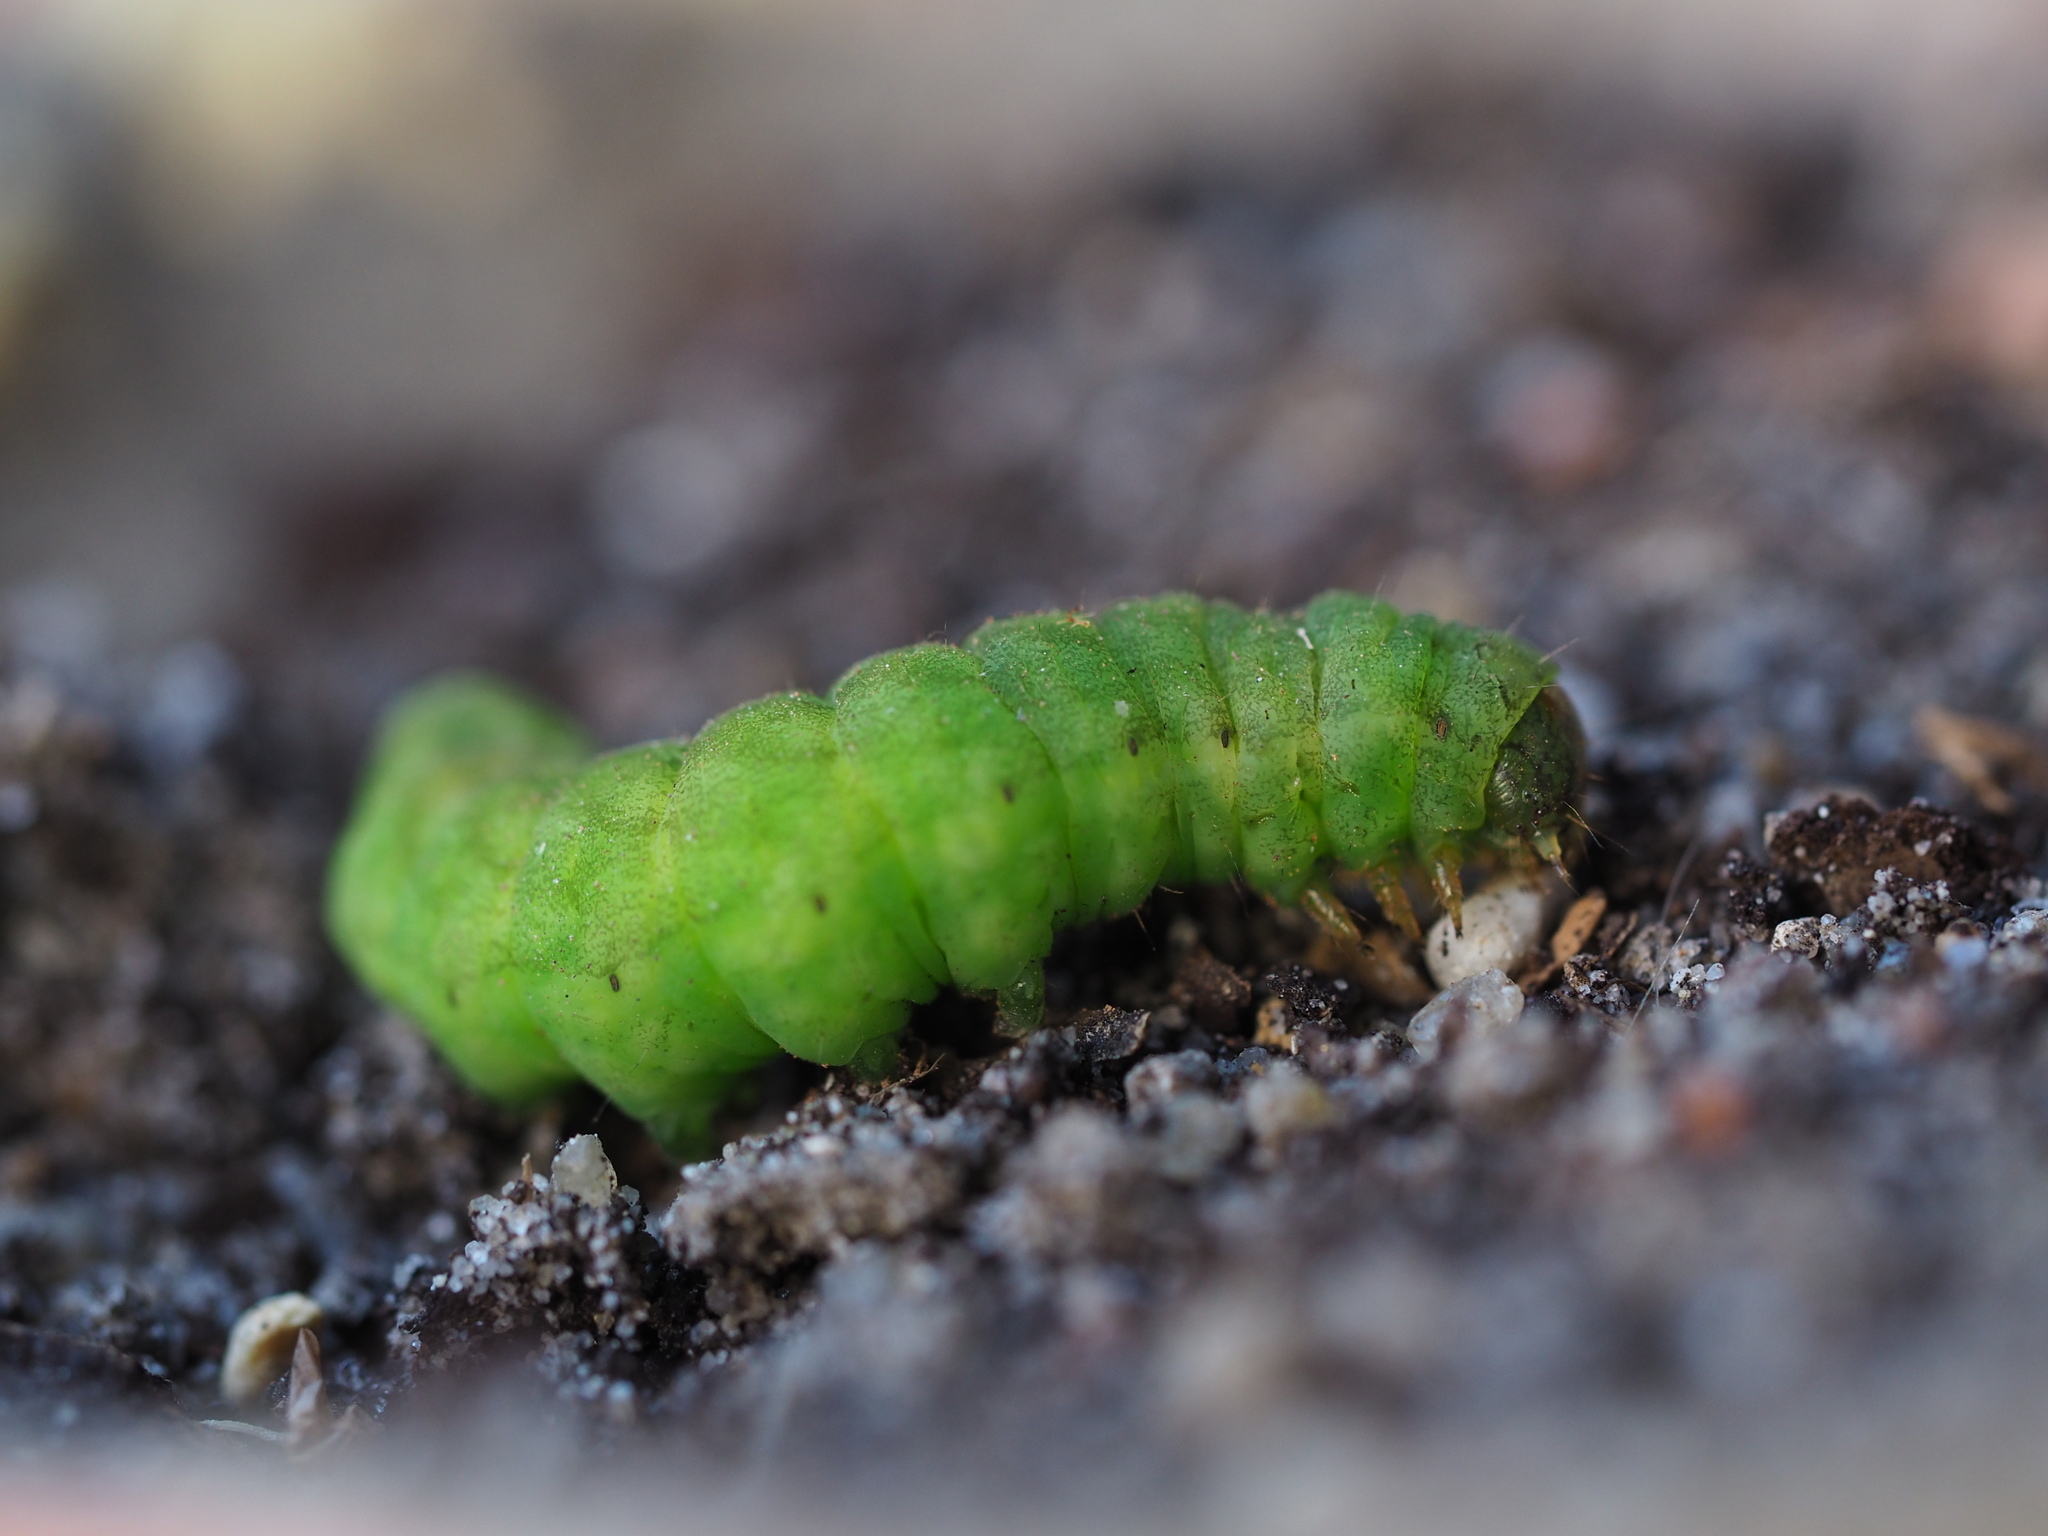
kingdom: Animalia
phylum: Arthropoda
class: Insecta
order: Lepidoptera
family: Noctuidae
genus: Phlogophora
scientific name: Phlogophora meticulosa
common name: Angle shades
